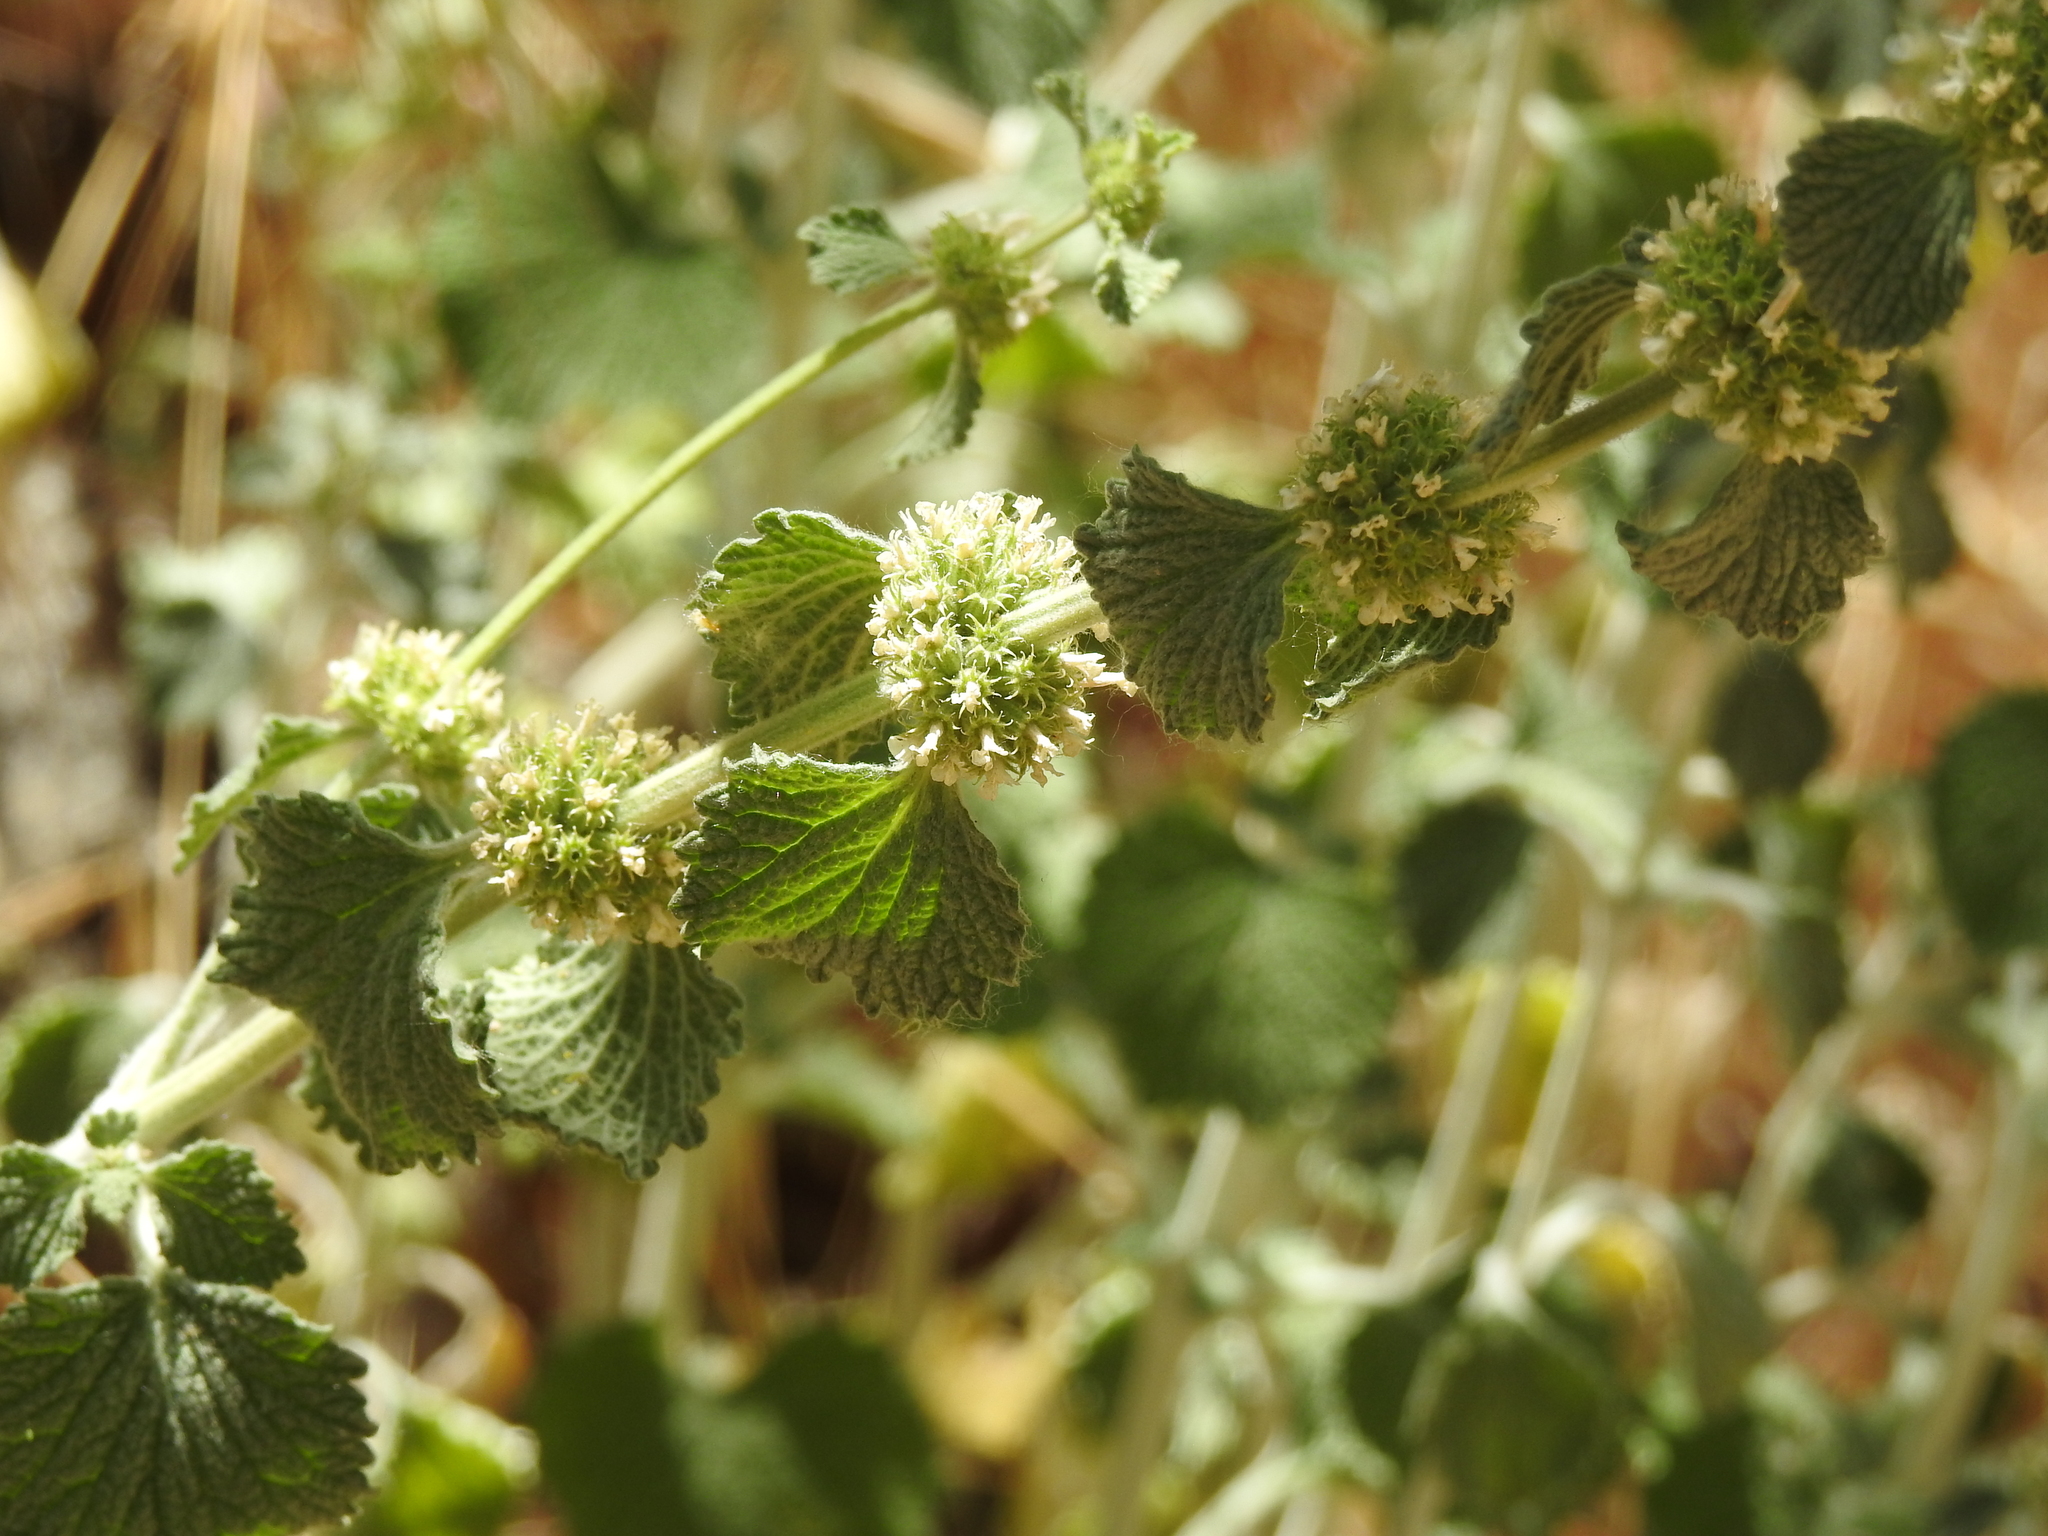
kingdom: Plantae
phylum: Tracheophyta
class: Magnoliopsida
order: Lamiales
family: Lamiaceae
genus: Marrubium
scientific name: Marrubium vulgare
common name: Horehound
